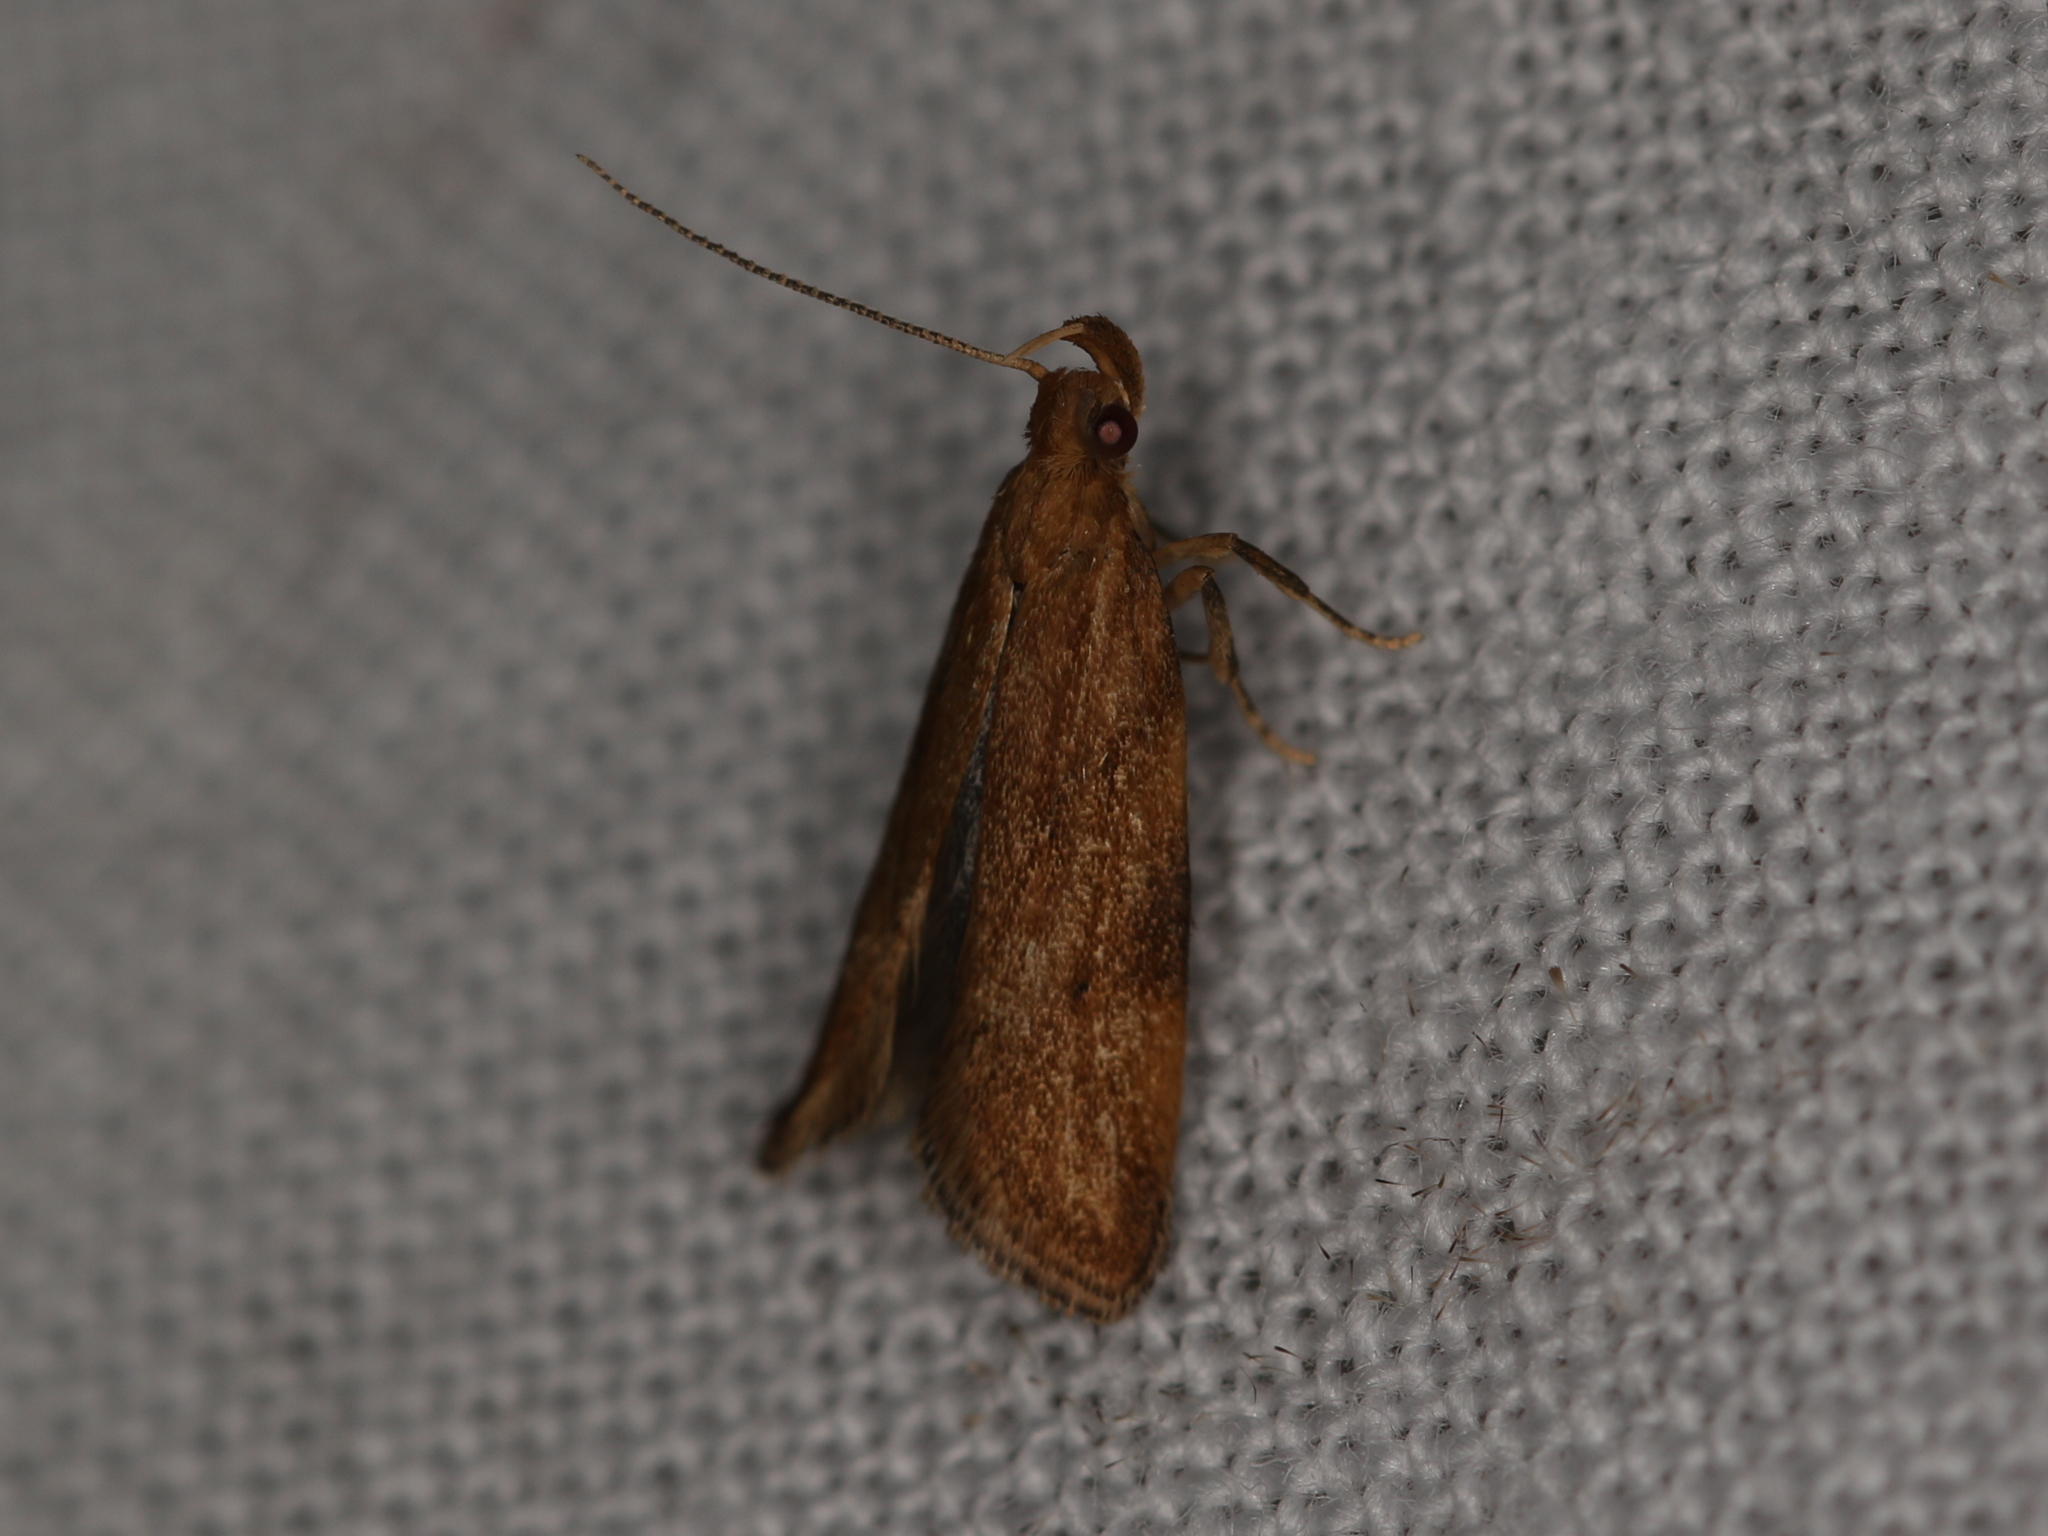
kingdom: Animalia
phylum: Arthropoda
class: Insecta
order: Lepidoptera
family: Depressariidae
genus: Orophia
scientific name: Orophia ferrugella
